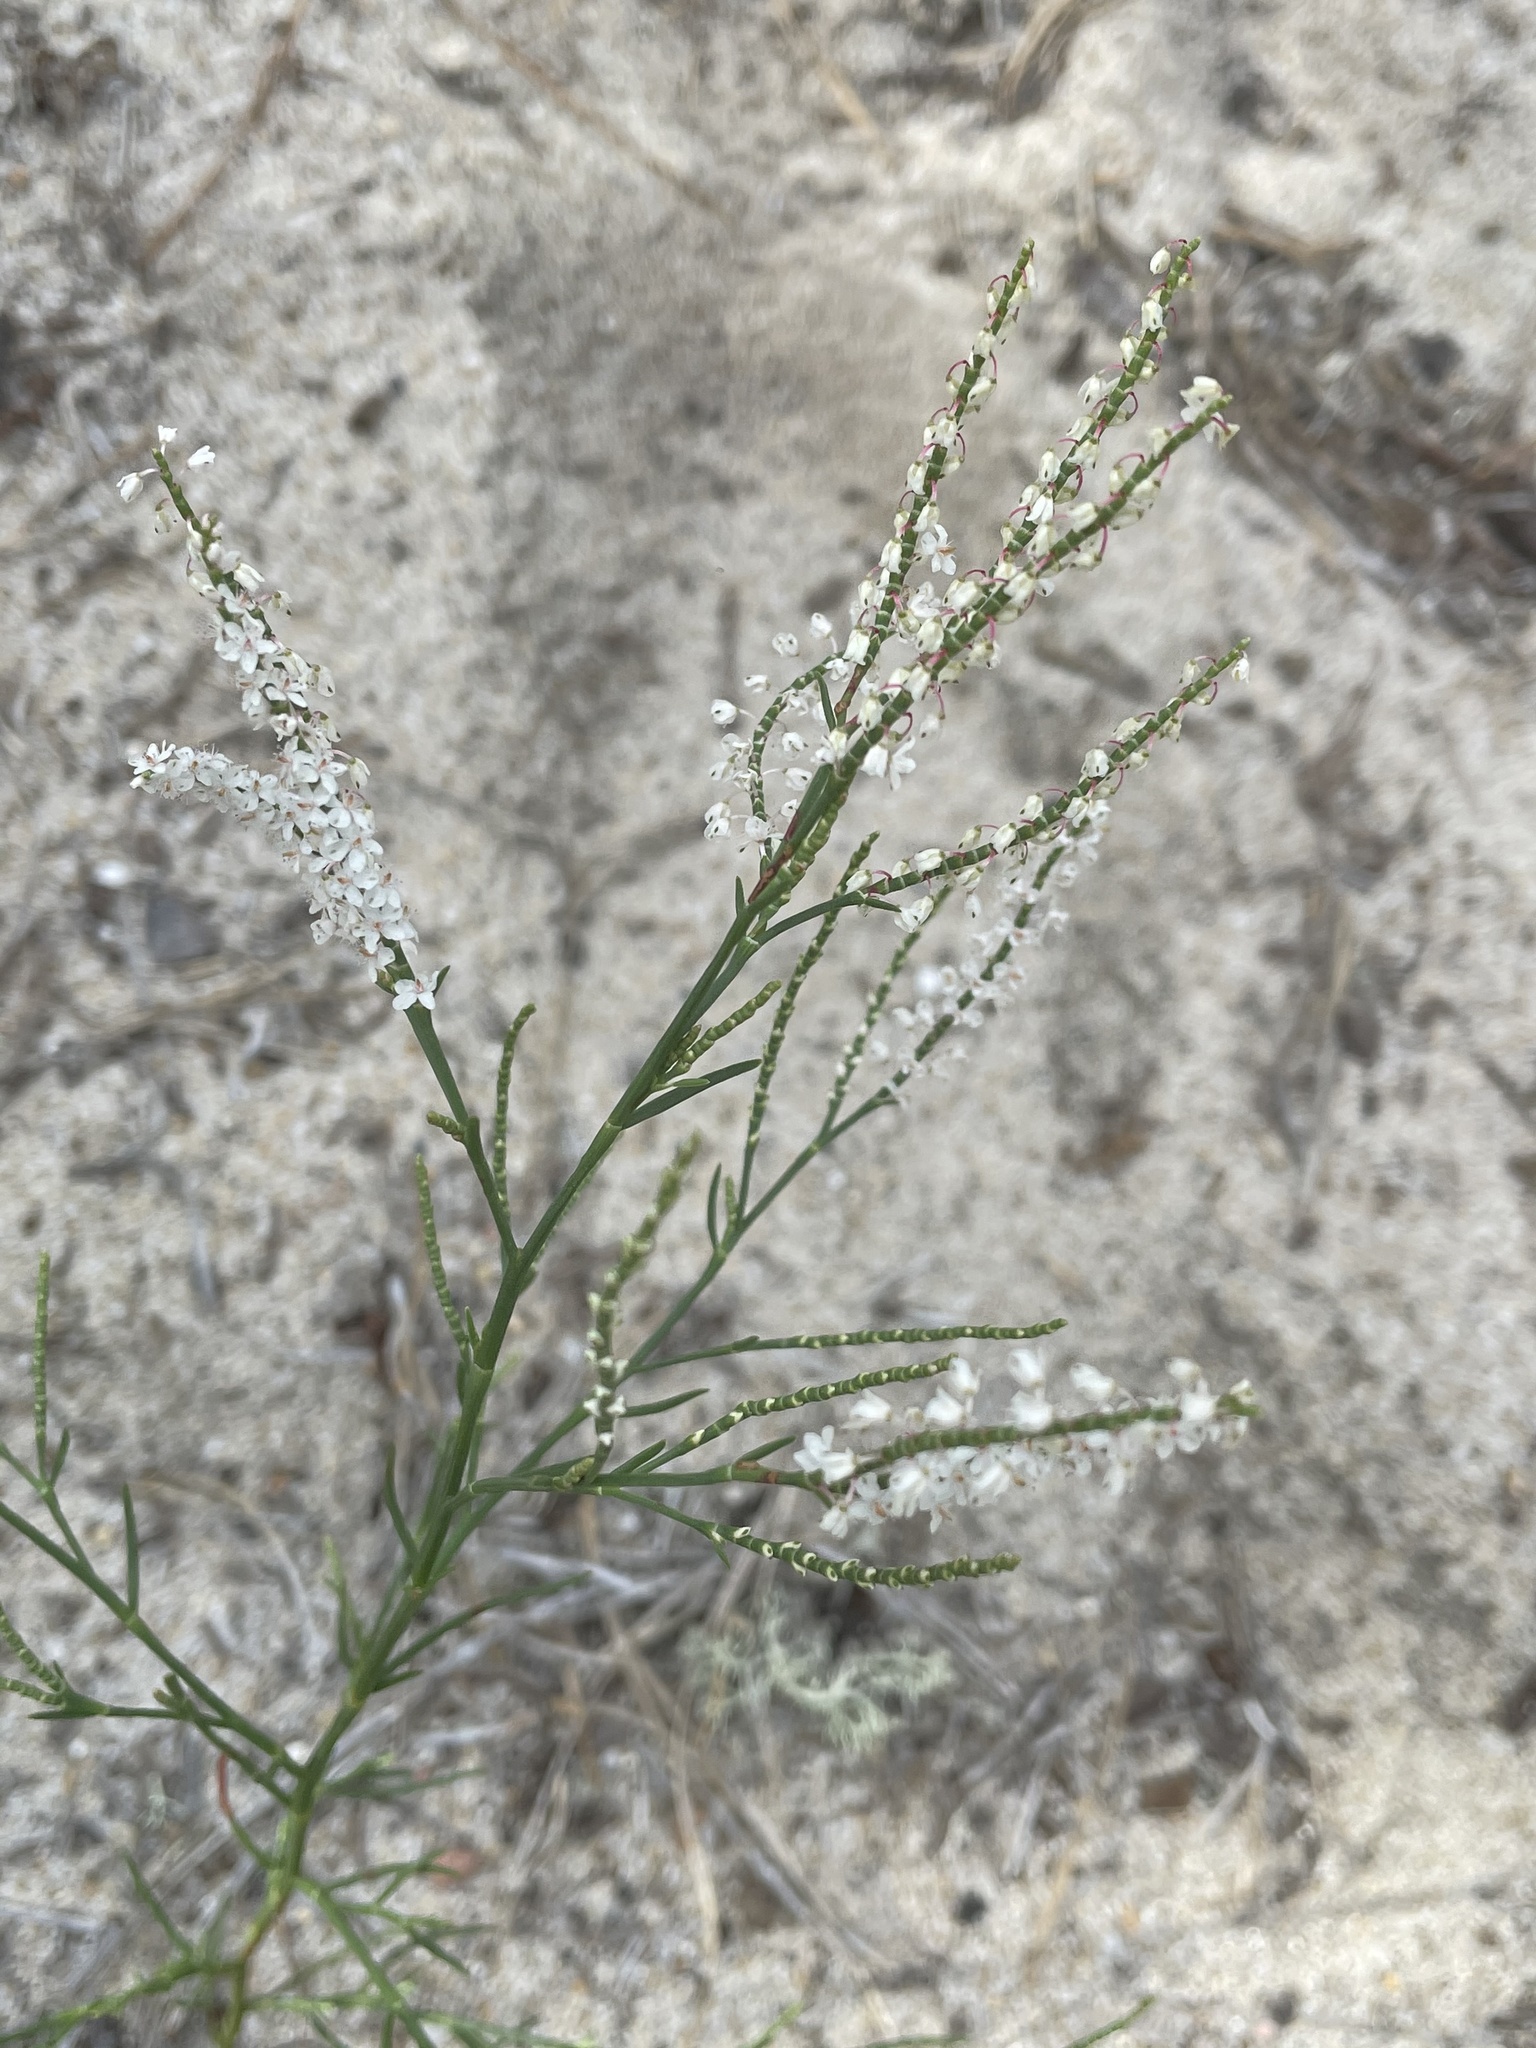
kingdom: Plantae
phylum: Tracheophyta
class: Magnoliopsida
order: Caryophyllales
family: Polygonaceae
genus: Polygonella
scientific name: Polygonella articulata
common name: Coastal jointweed
